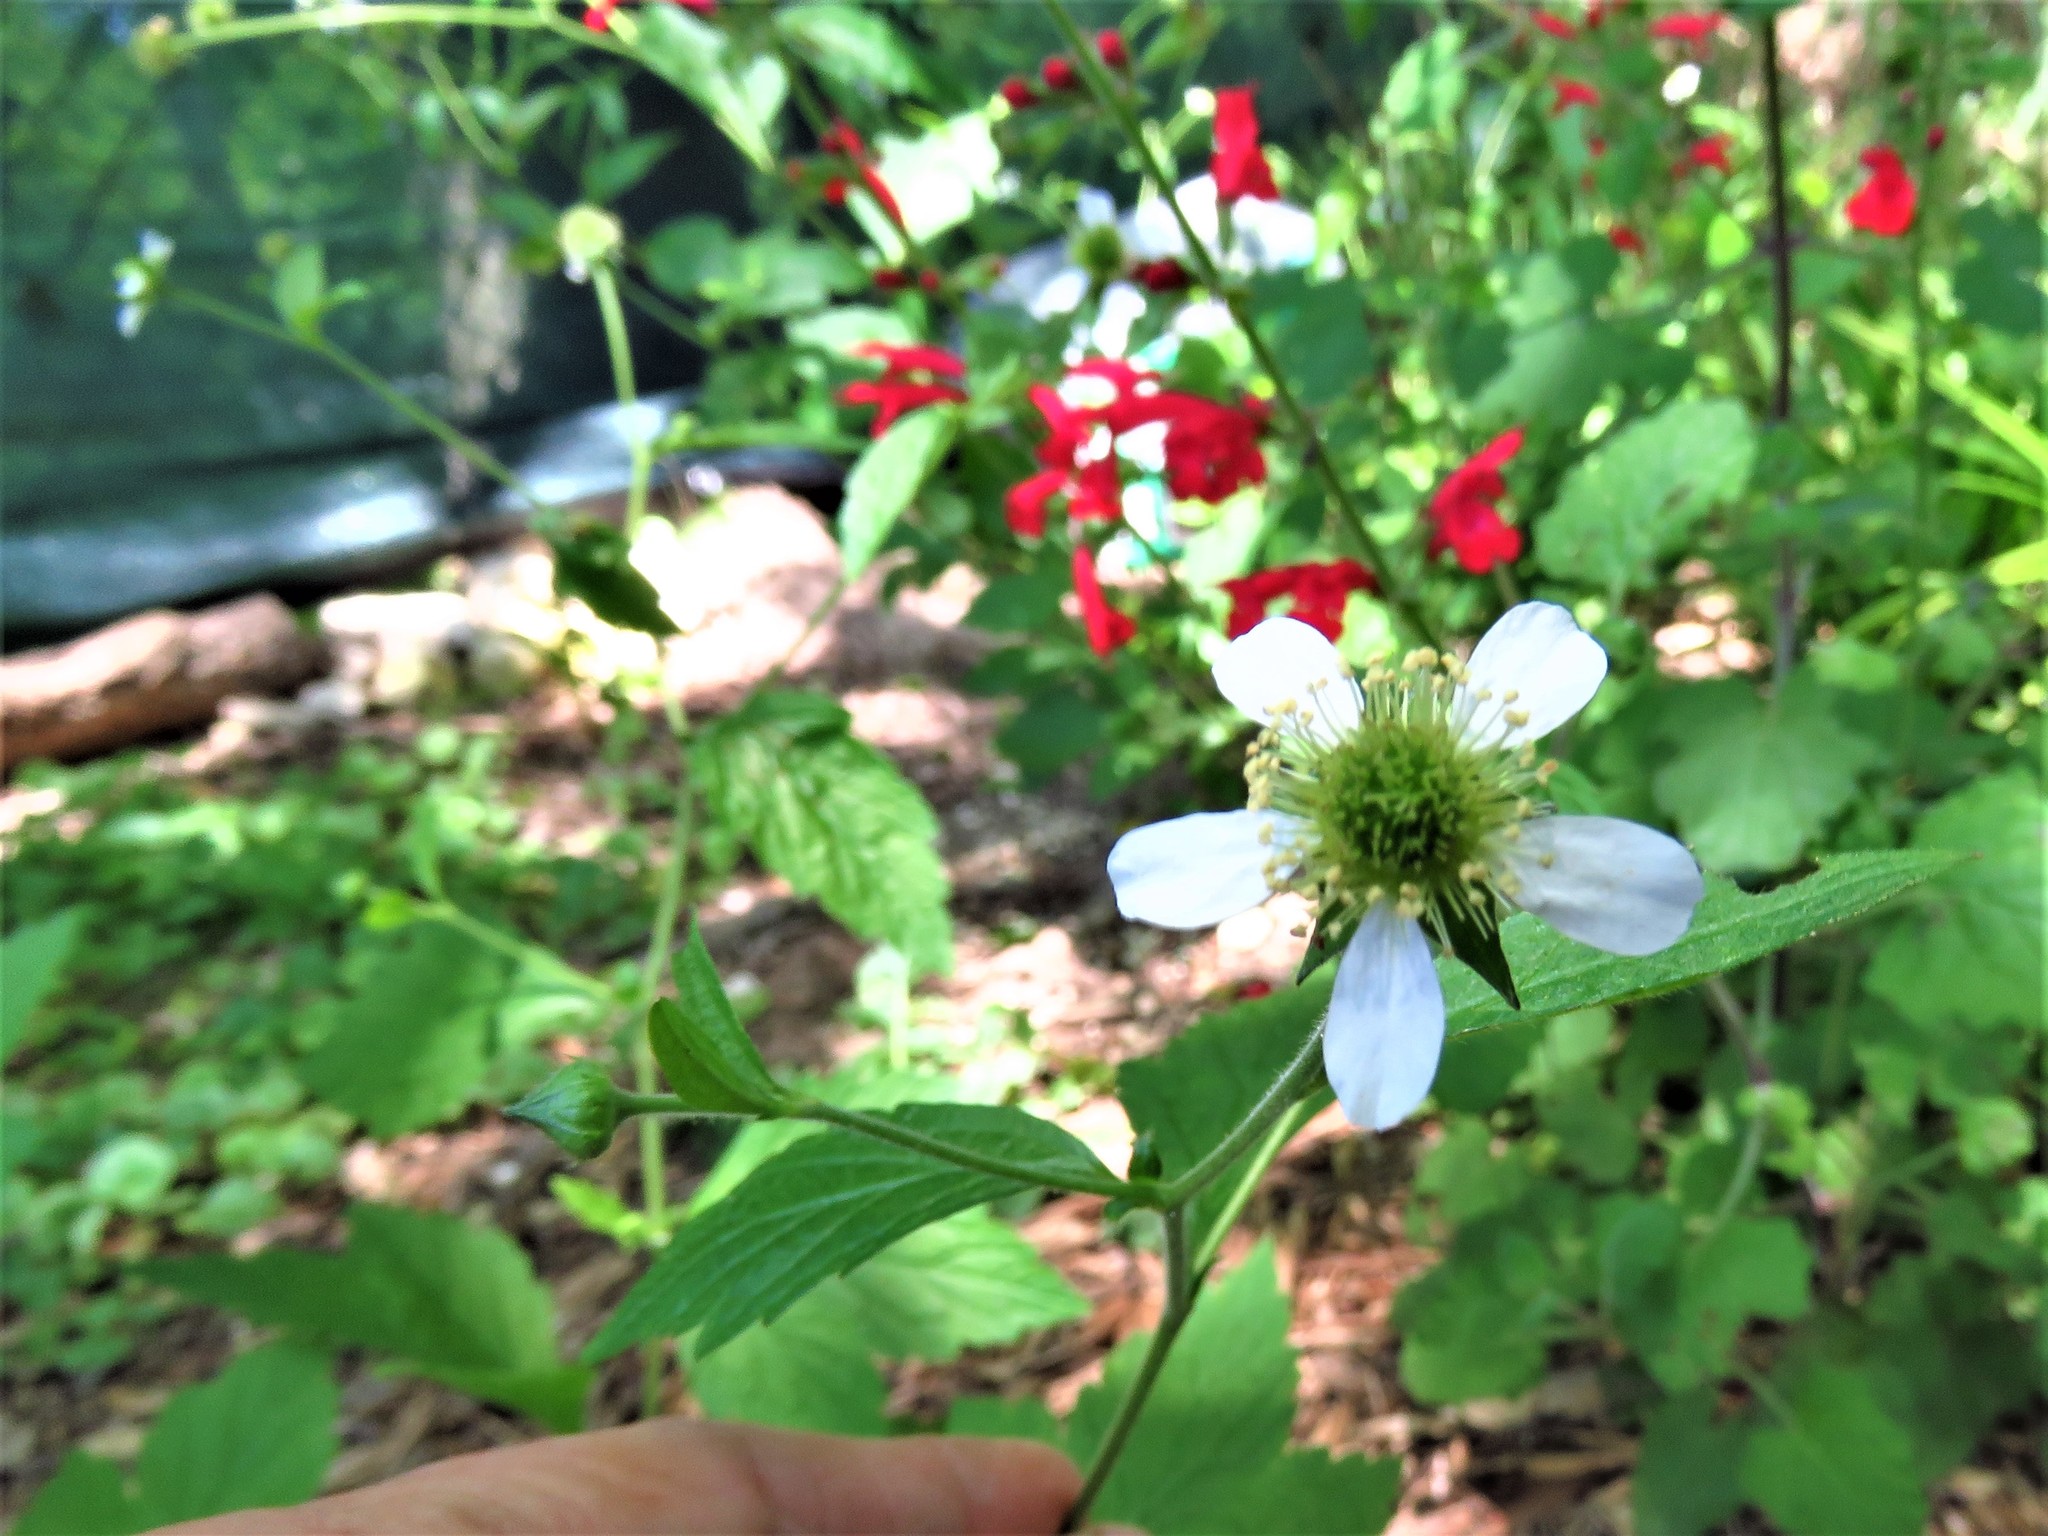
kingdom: Plantae
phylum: Tracheophyta
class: Magnoliopsida
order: Rosales
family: Rosaceae
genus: Geum
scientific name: Geum canadense
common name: White avens
